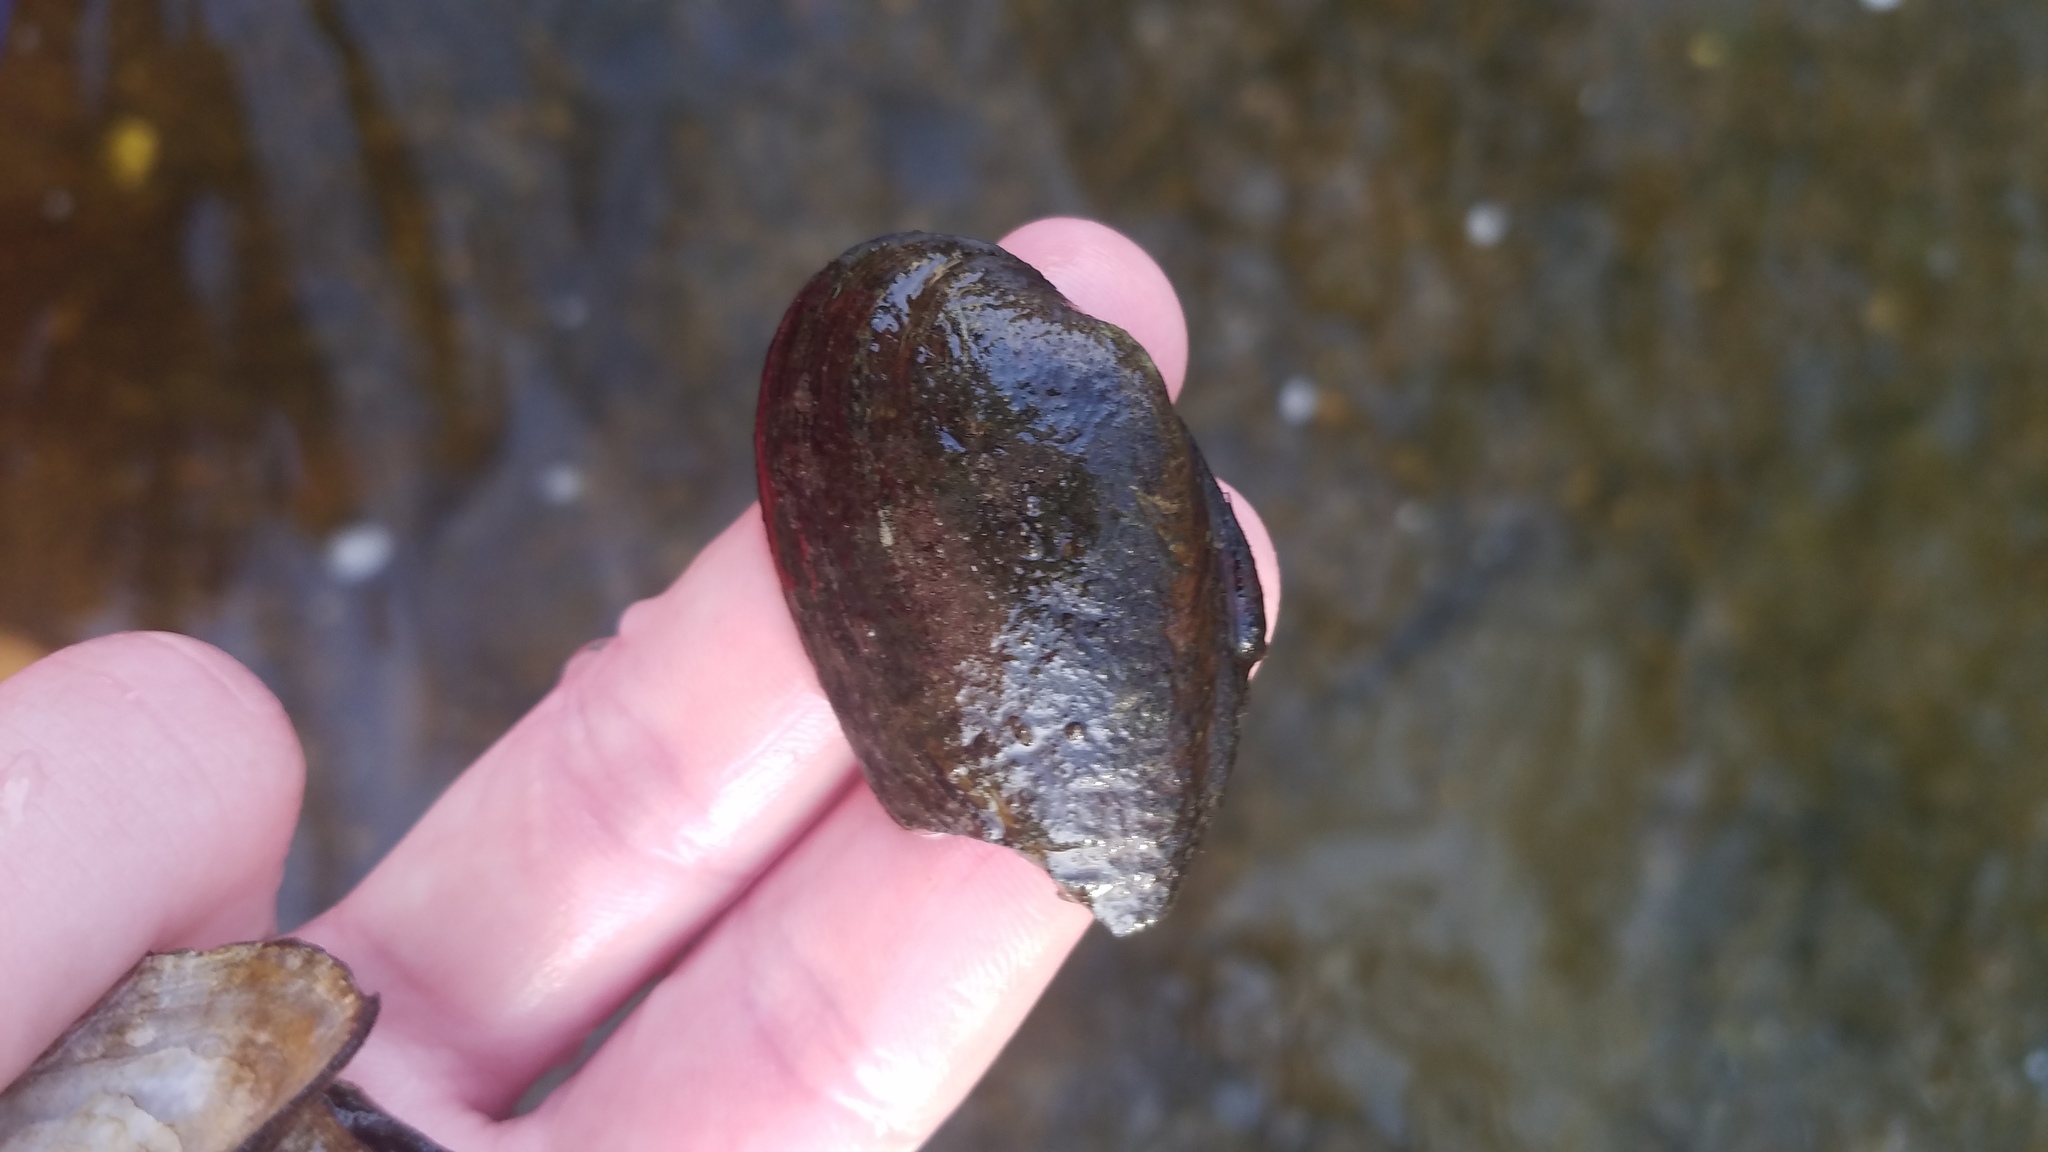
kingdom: Animalia
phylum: Mollusca
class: Bivalvia
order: Unionida
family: Unionidae
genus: Venustaconcha
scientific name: Venustaconcha ellipsiformis
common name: Ellipse
